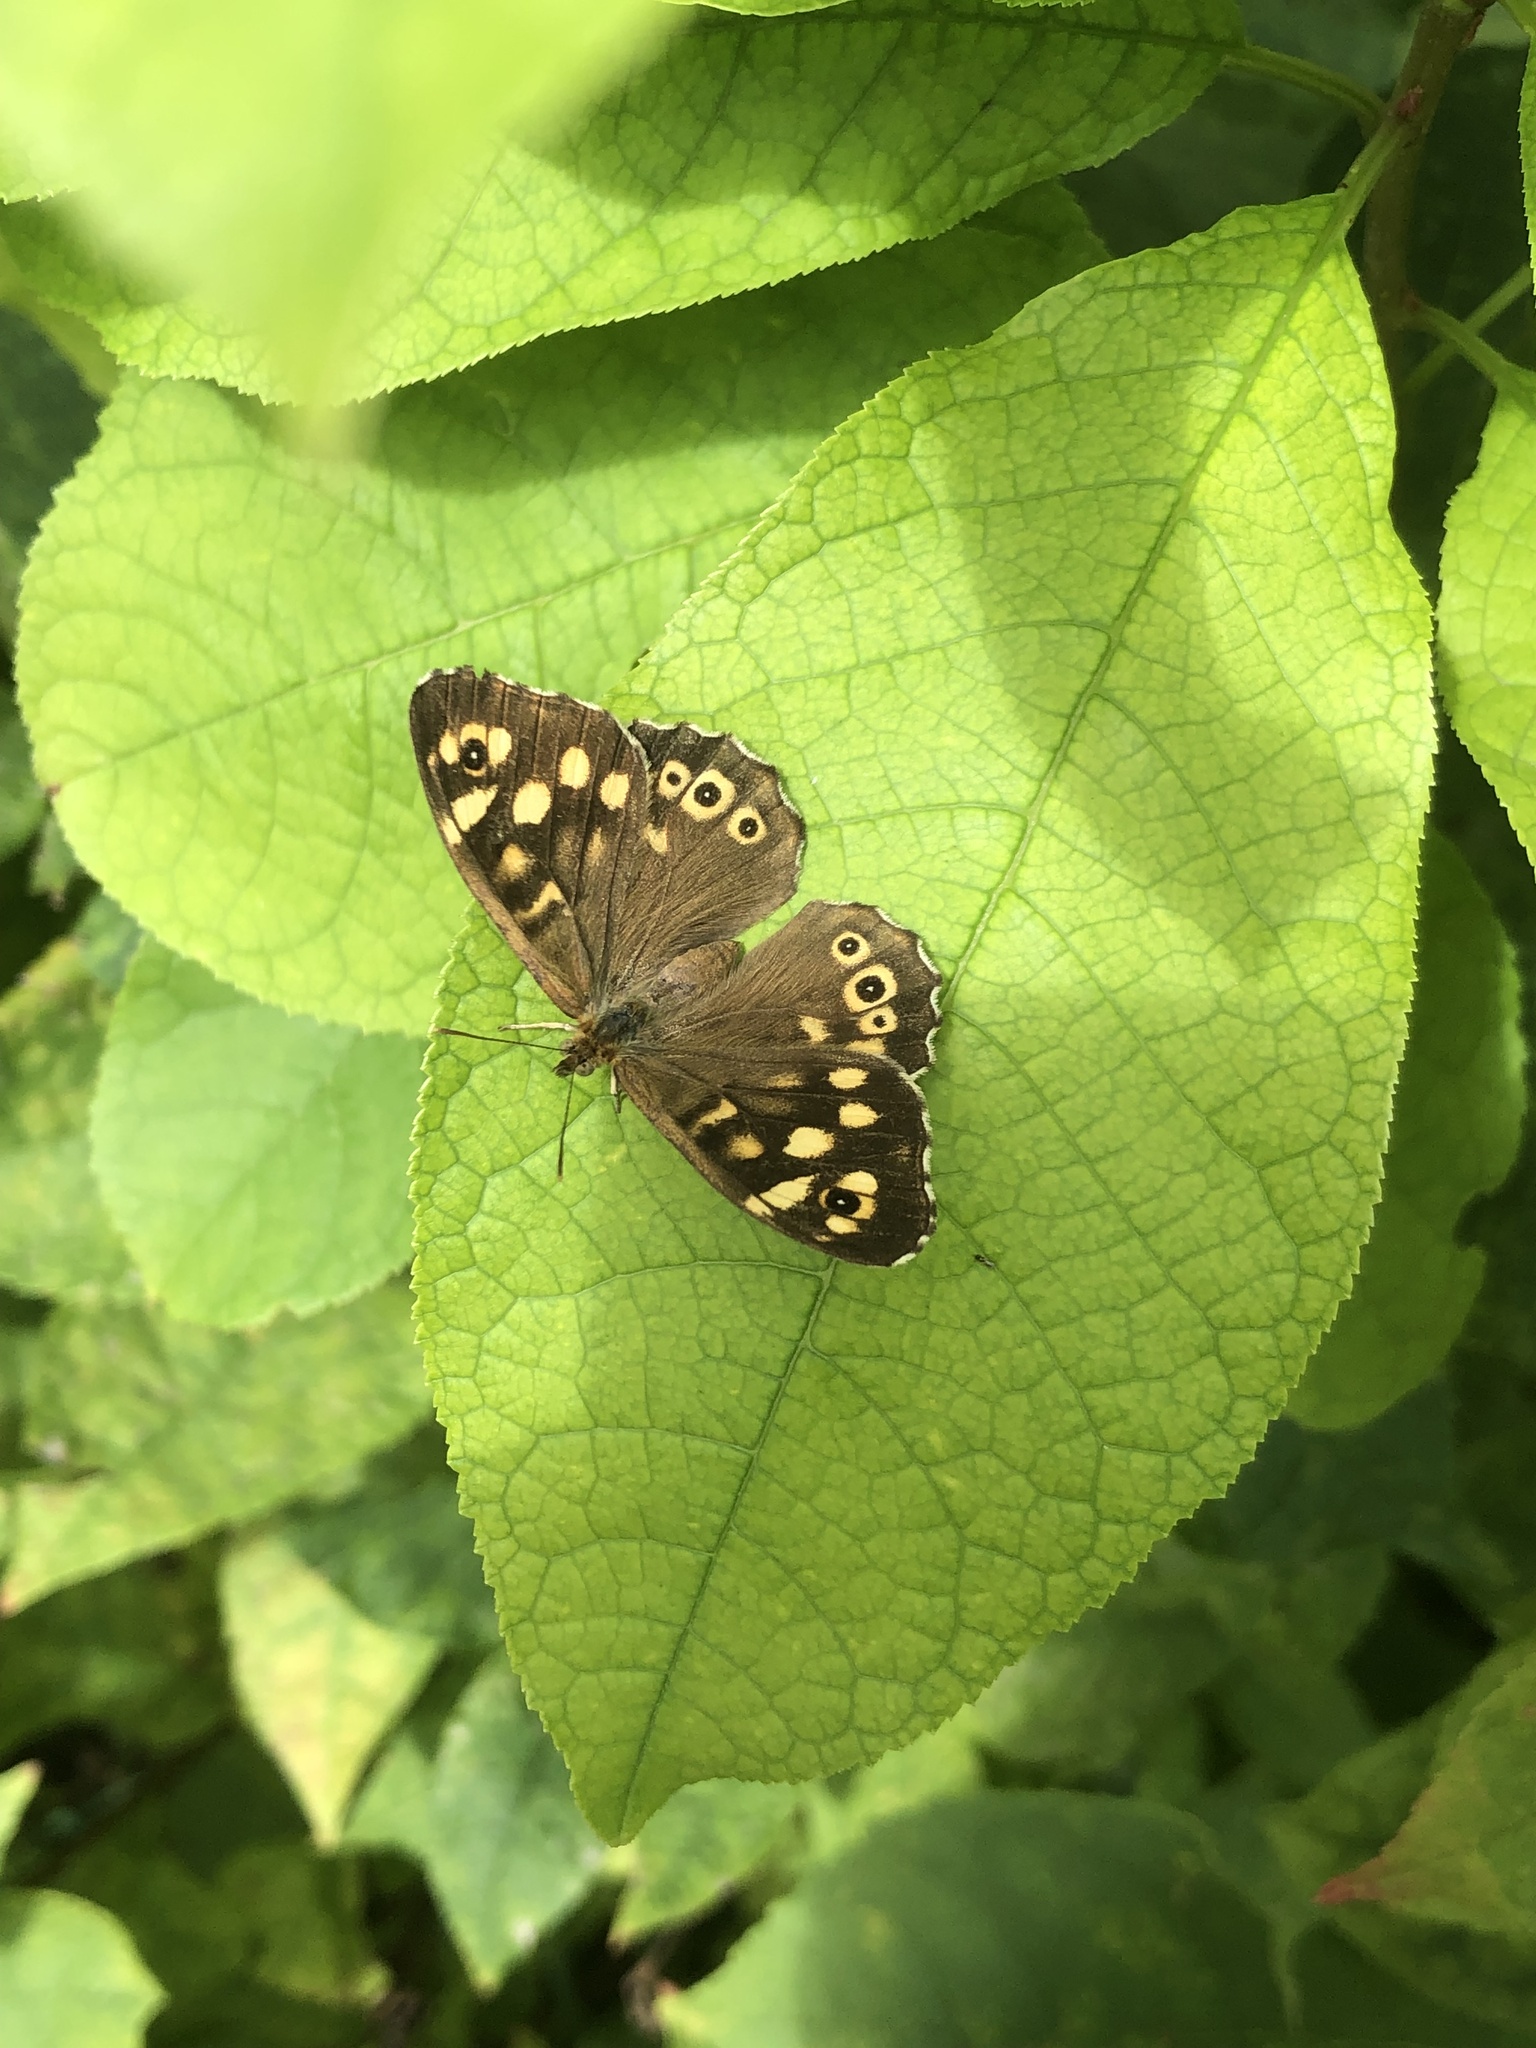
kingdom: Animalia
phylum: Arthropoda
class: Insecta
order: Lepidoptera
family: Nymphalidae
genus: Pararge
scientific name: Pararge aegeria
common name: Speckled wood
